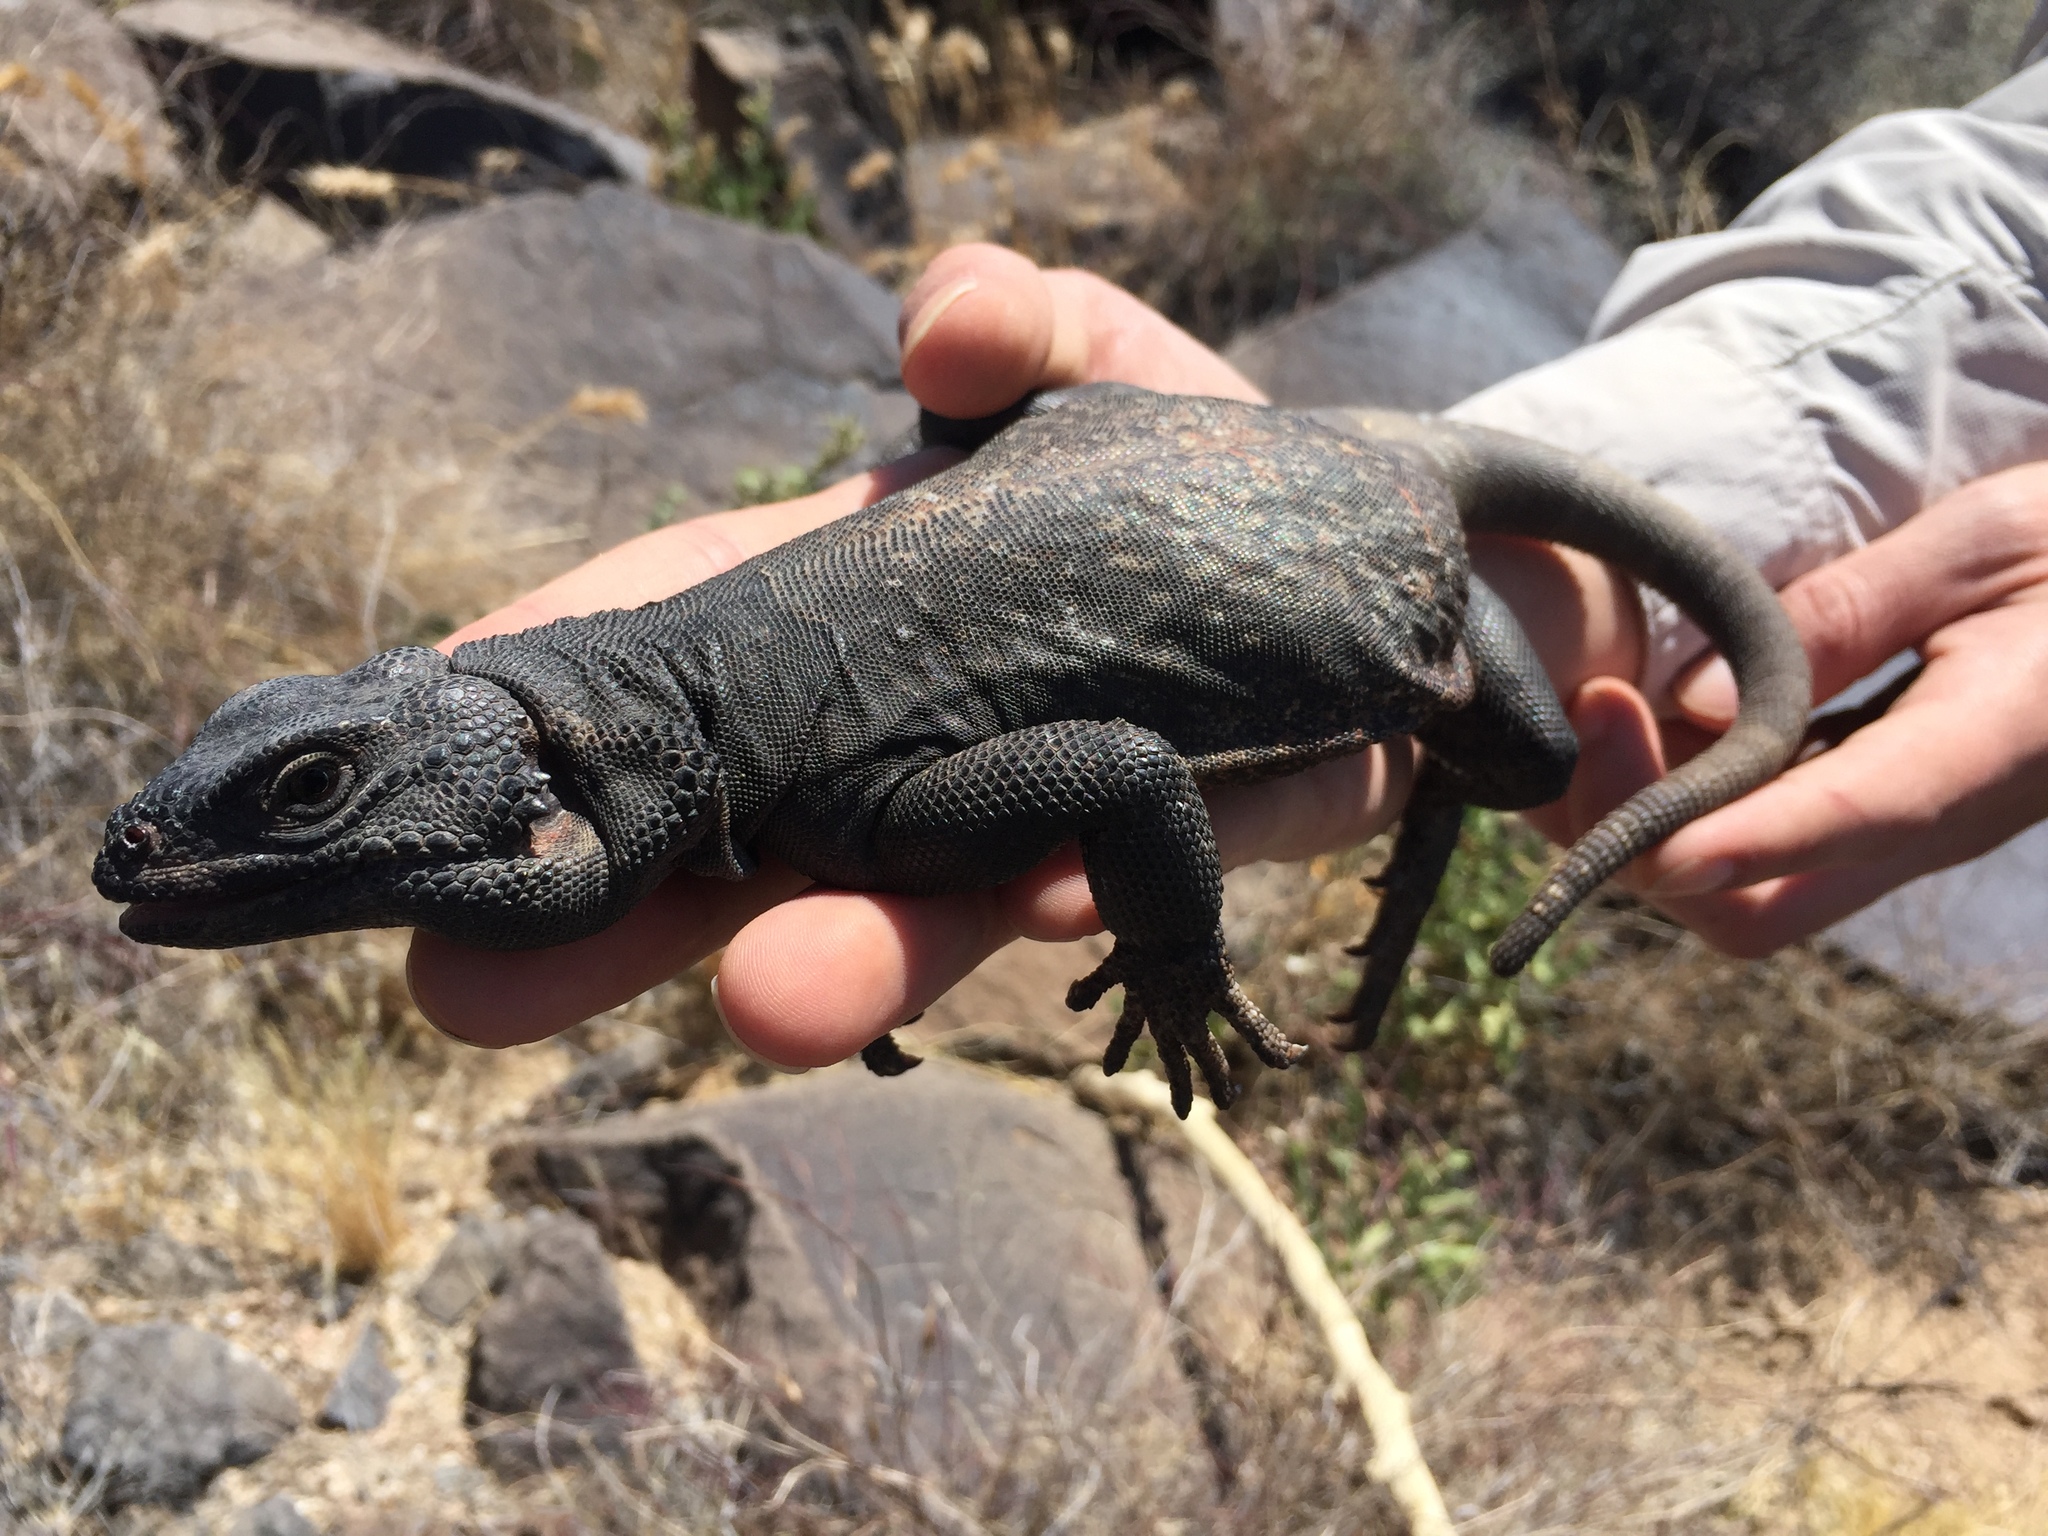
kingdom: Animalia
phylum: Chordata
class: Squamata
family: Iguanidae
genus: Sauromalus
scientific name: Sauromalus ater
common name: Northern chuckwalla
